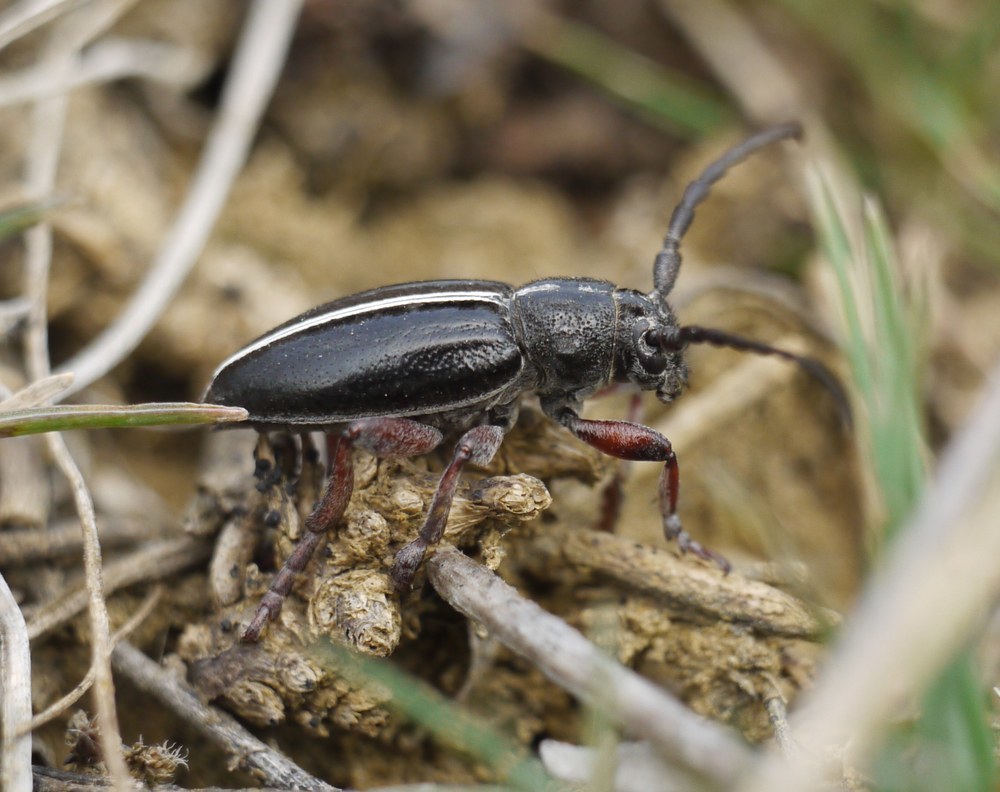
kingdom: Animalia
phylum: Arthropoda
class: Insecta
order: Coleoptera
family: Cerambycidae
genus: Dorcadion
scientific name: Dorcadion cinerarium
